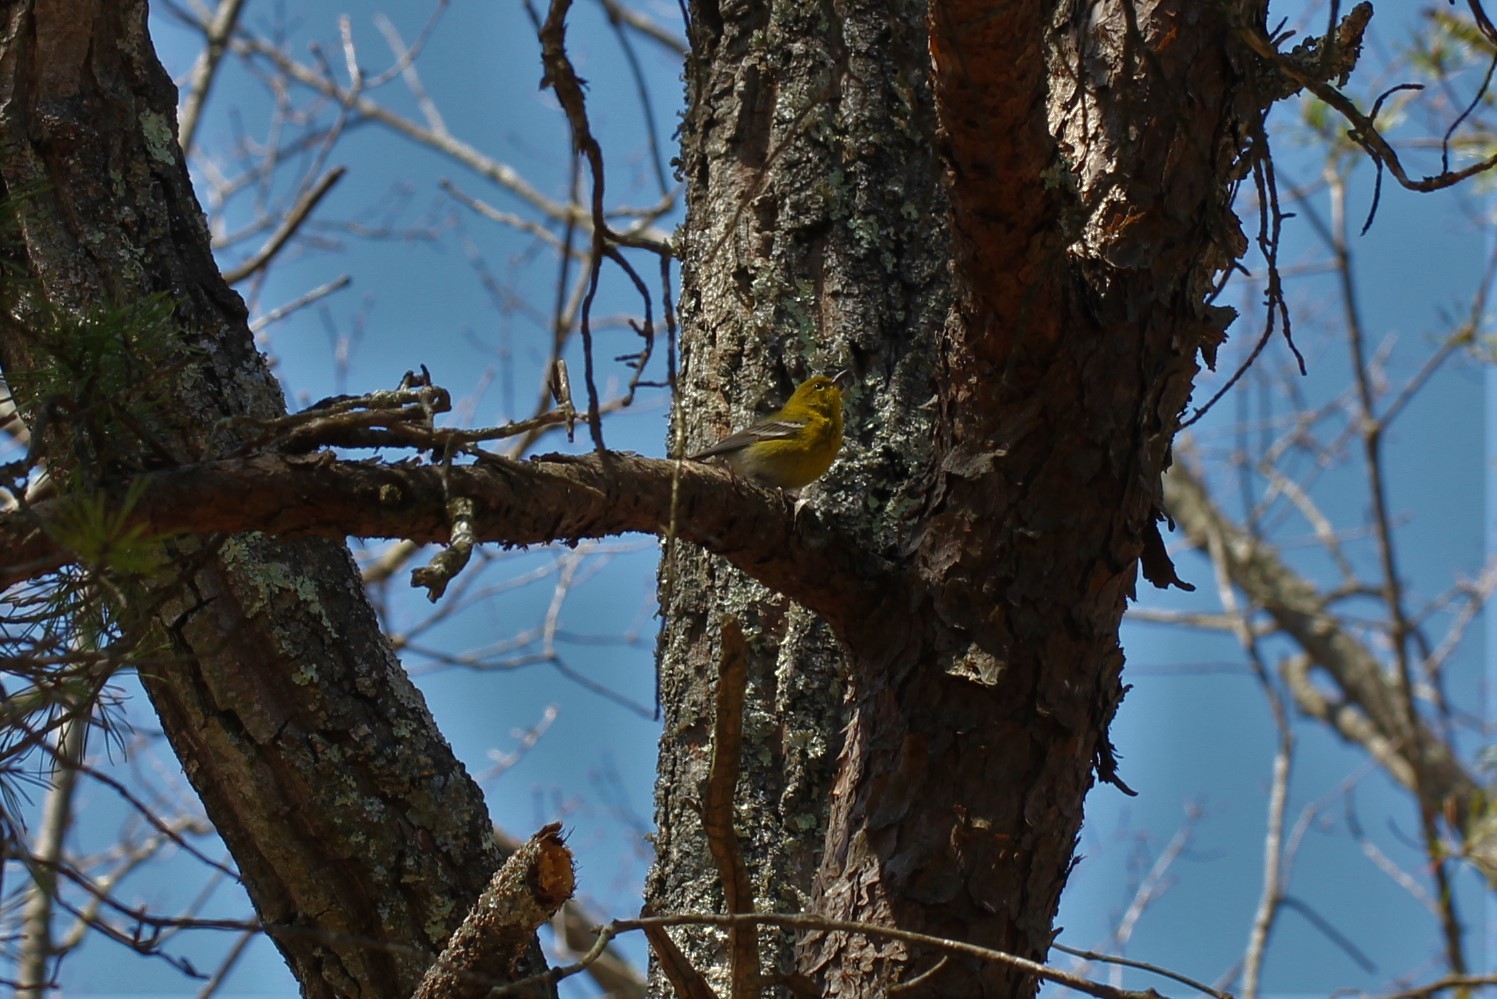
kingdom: Animalia
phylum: Chordata
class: Aves
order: Passeriformes
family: Parulidae
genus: Setophaga
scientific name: Setophaga pinus
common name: Pine warbler
